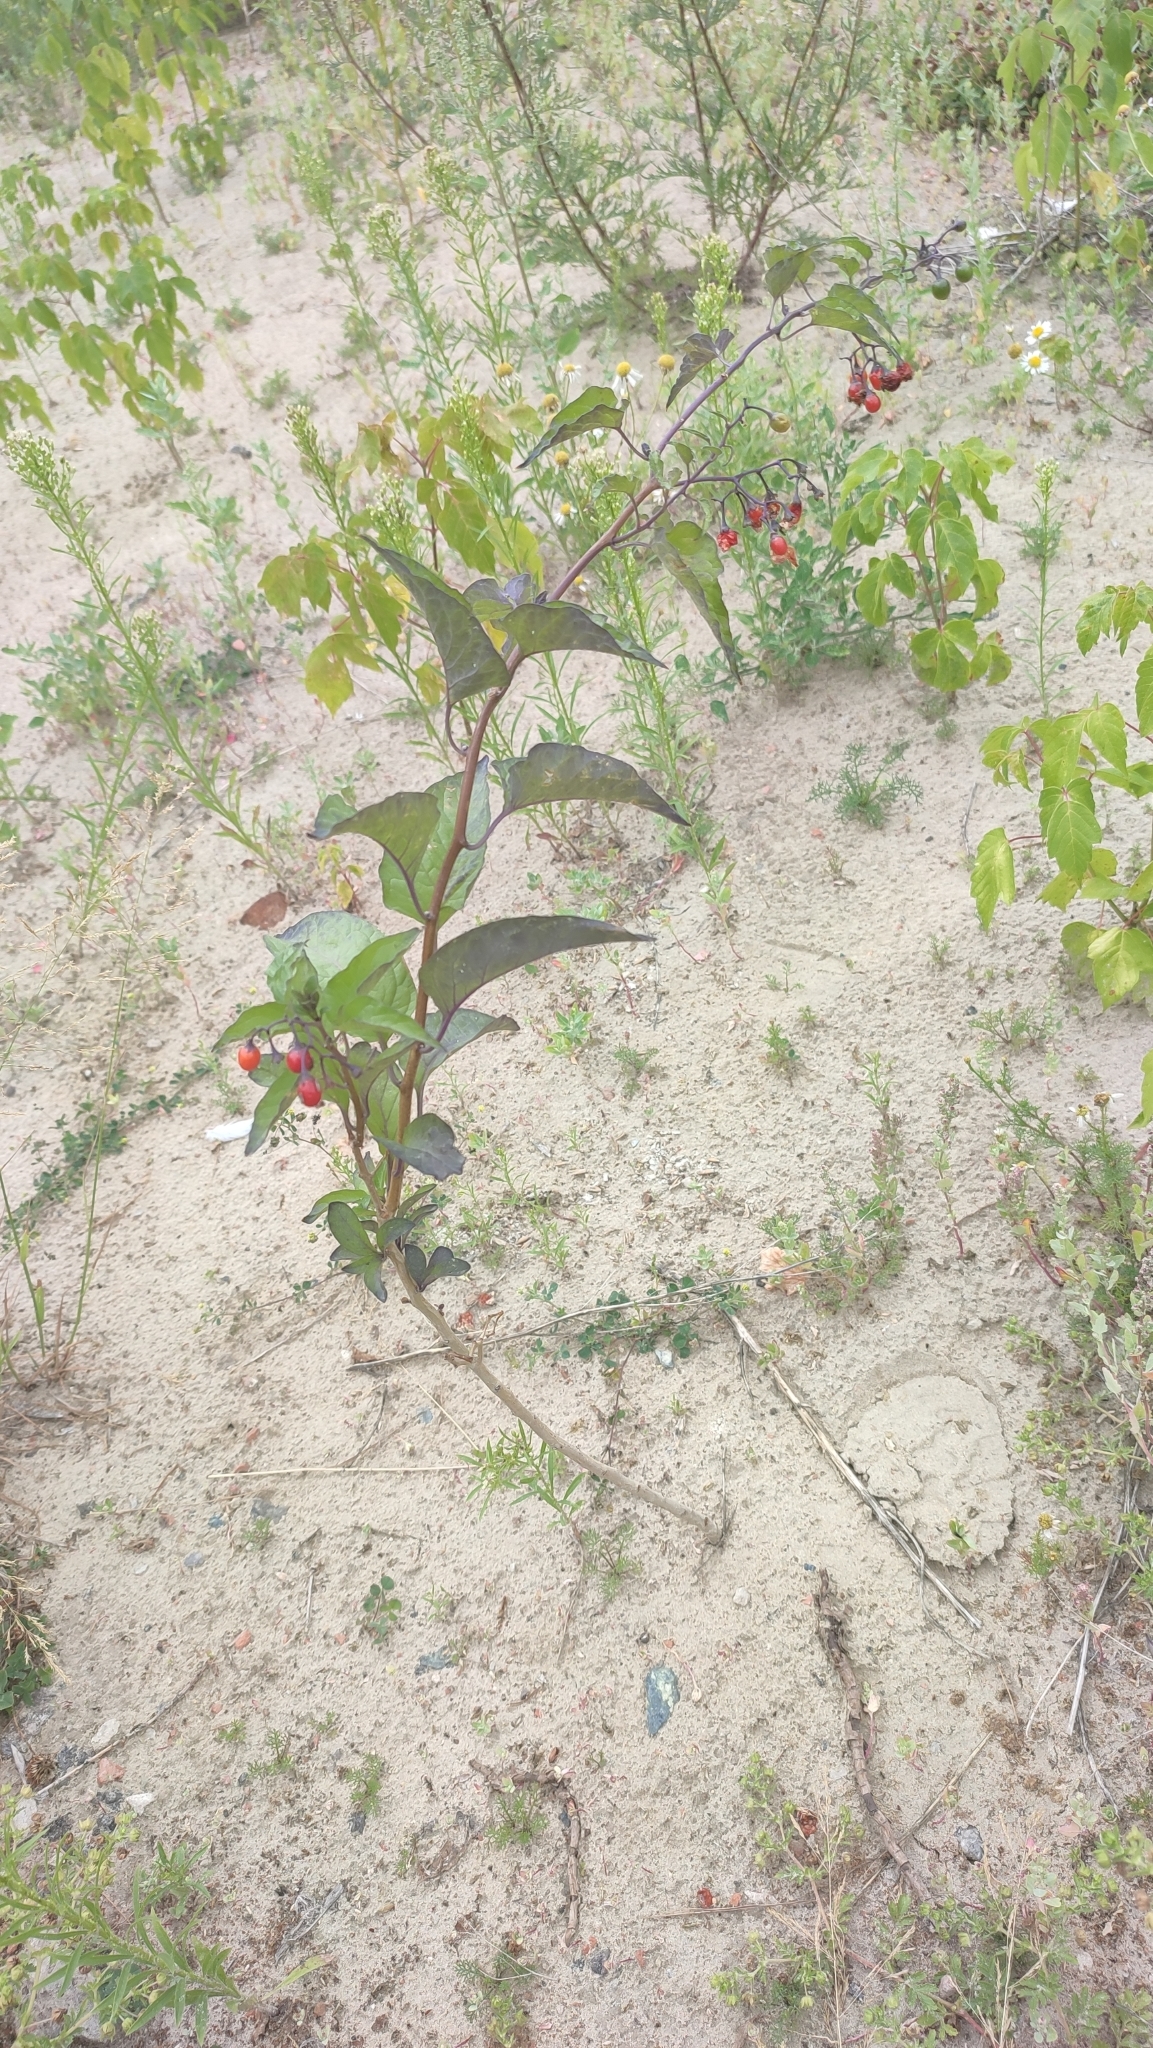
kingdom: Plantae
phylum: Tracheophyta
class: Magnoliopsida
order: Solanales
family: Solanaceae
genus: Solanum
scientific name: Solanum dulcamara
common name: Climbing nightshade
